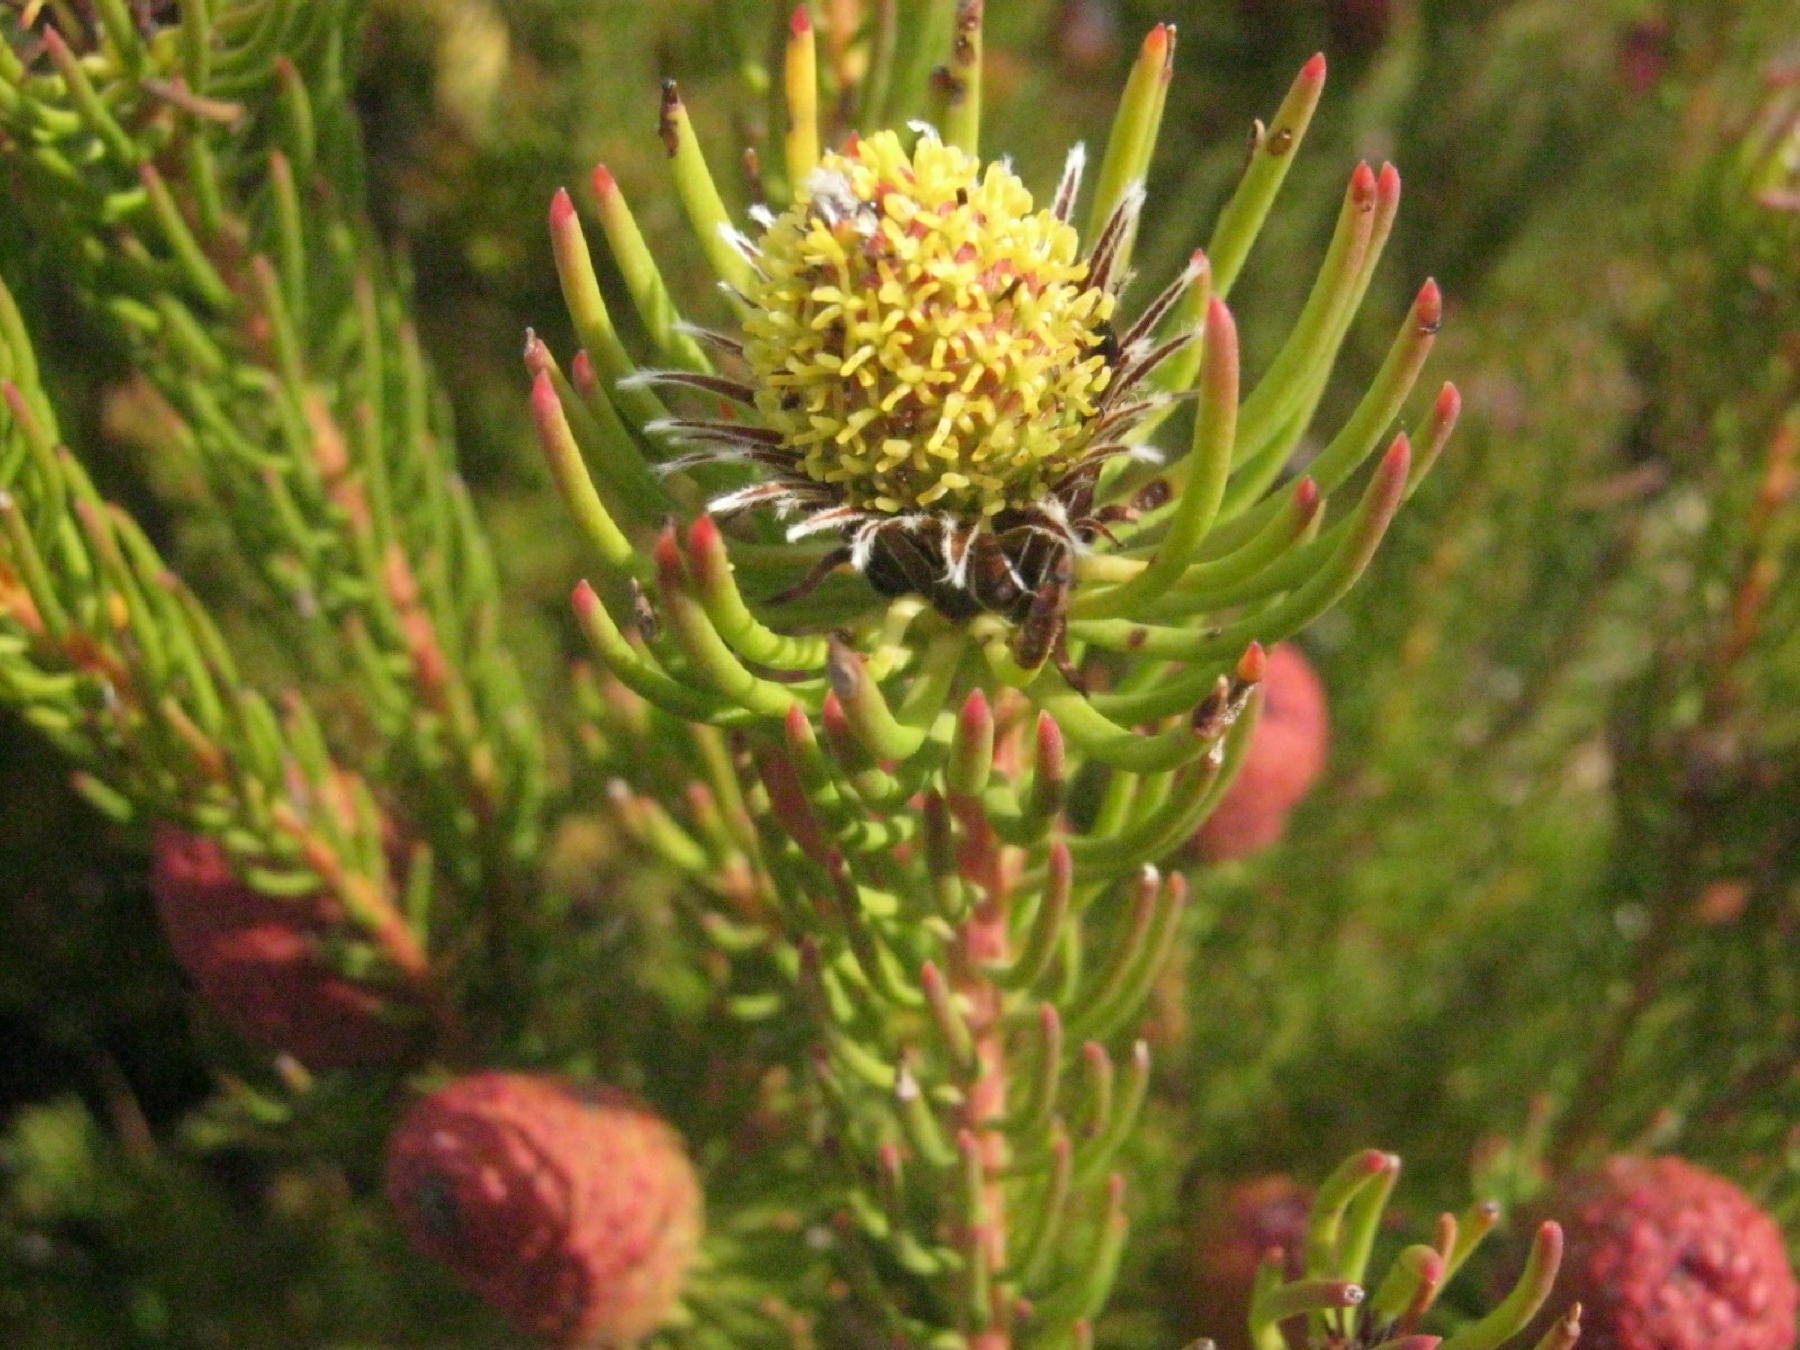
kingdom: Plantae
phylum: Tracheophyta
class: Magnoliopsida
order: Proteales
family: Proteaceae
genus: Leucadendron
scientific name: Leucadendron teretifolium
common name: Needle-leaf conebush
